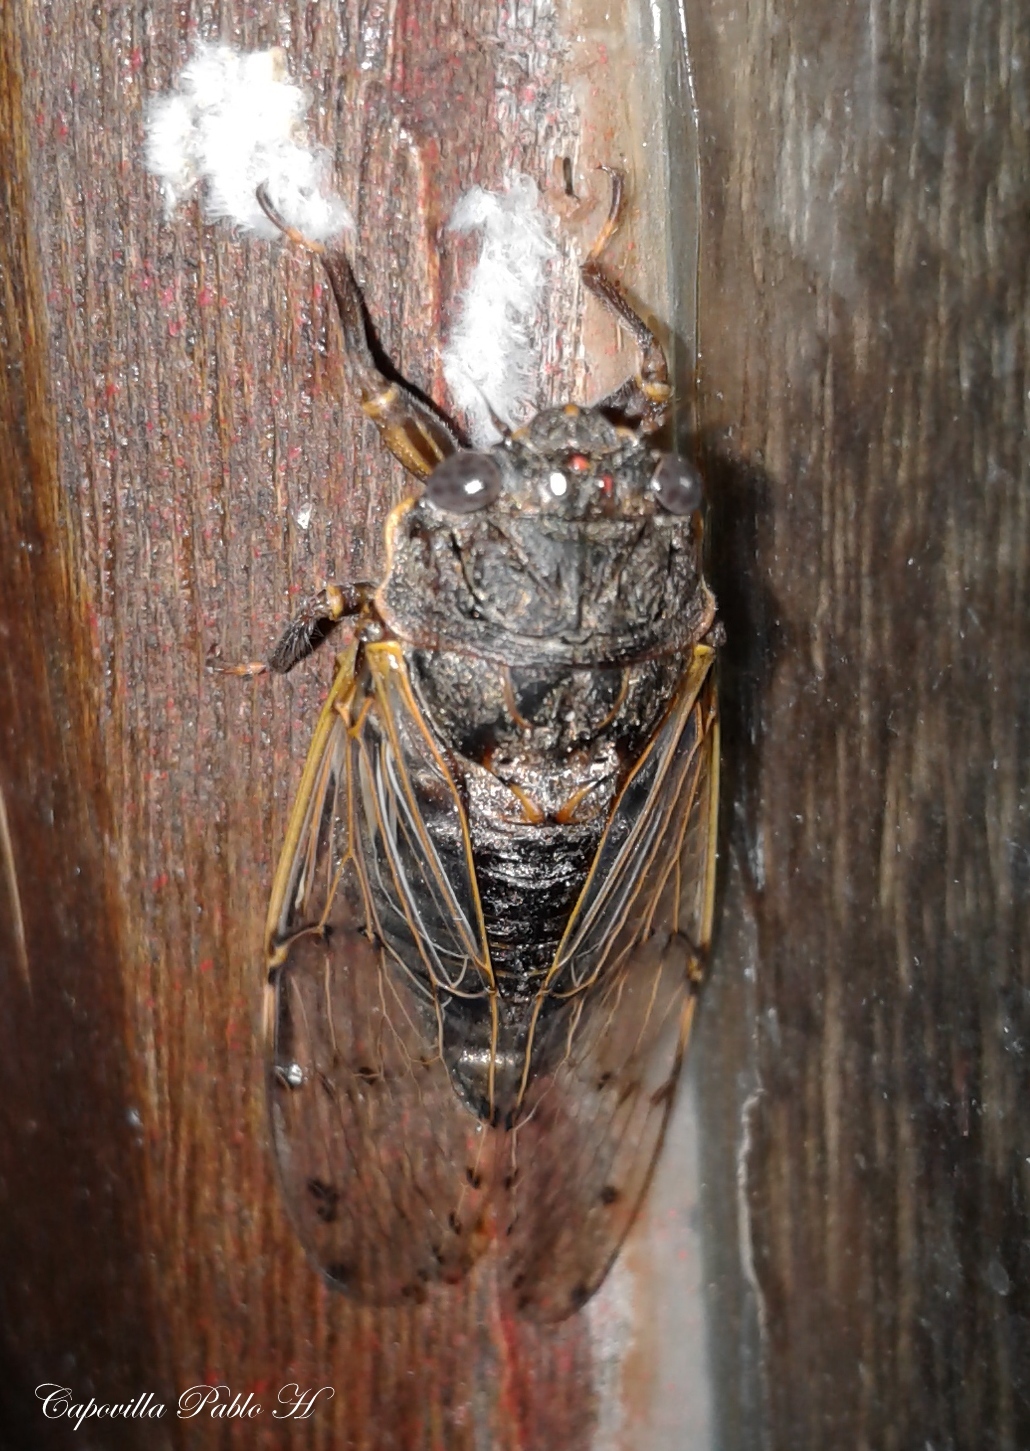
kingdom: Animalia
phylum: Arthropoda
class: Insecta
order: Hemiptera
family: Cicadidae
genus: Proarna
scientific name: Proarna bufo
